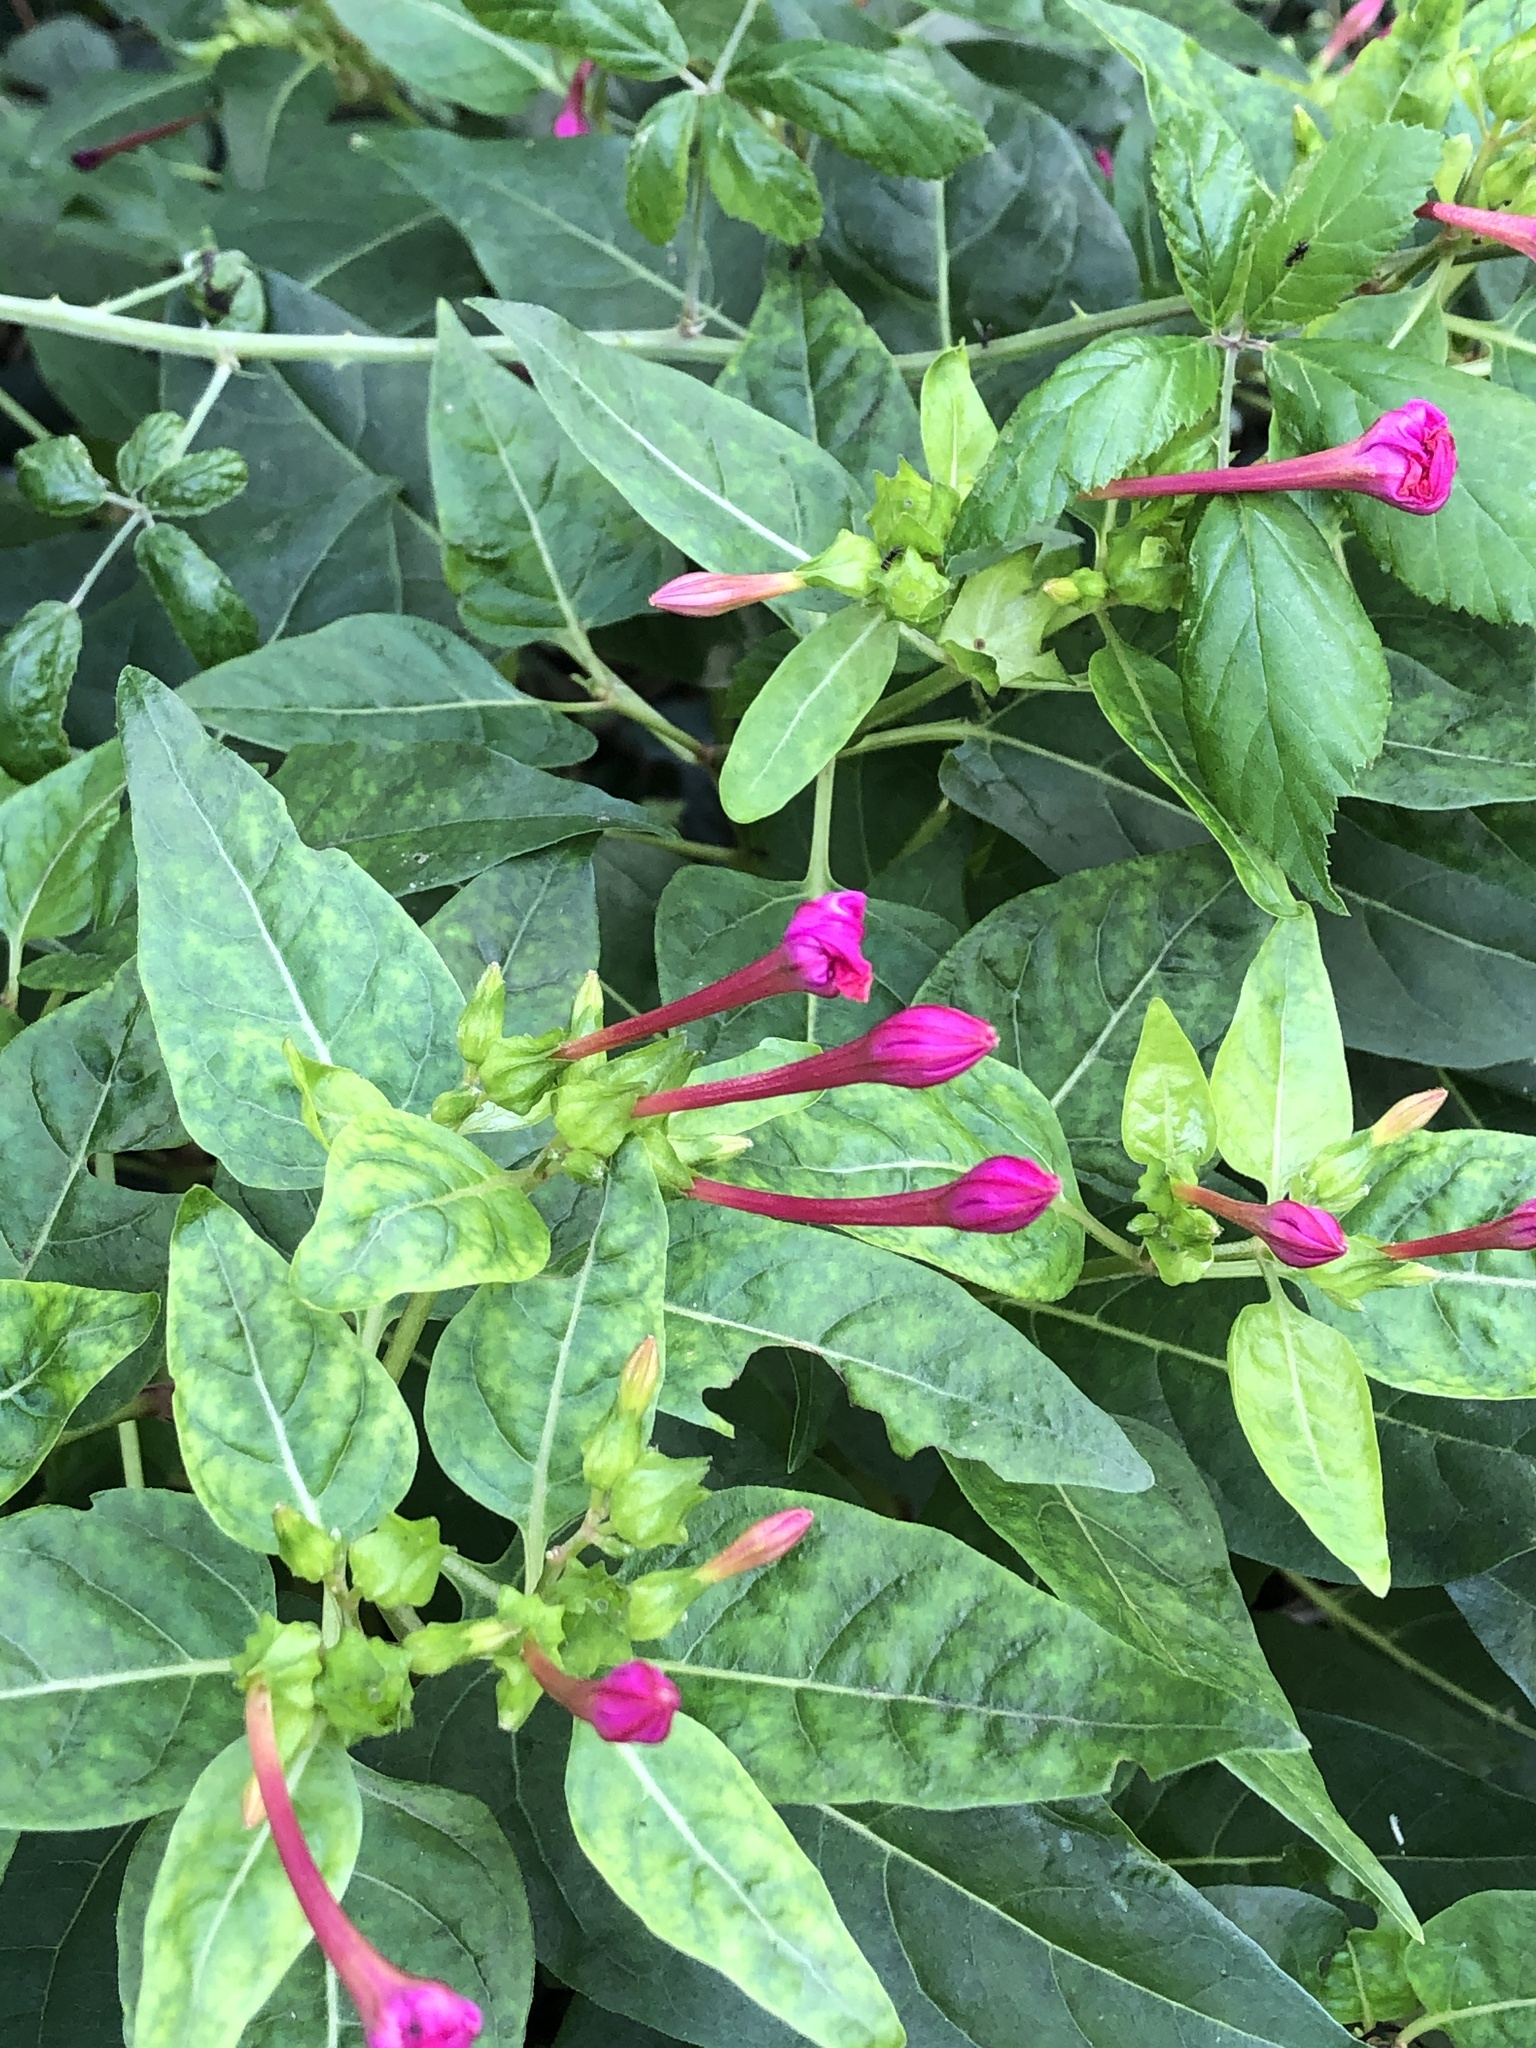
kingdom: Plantae
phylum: Tracheophyta
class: Magnoliopsida
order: Caryophyllales
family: Nyctaginaceae
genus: Mirabilis
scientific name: Mirabilis jalapa
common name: Marvel-of-peru
